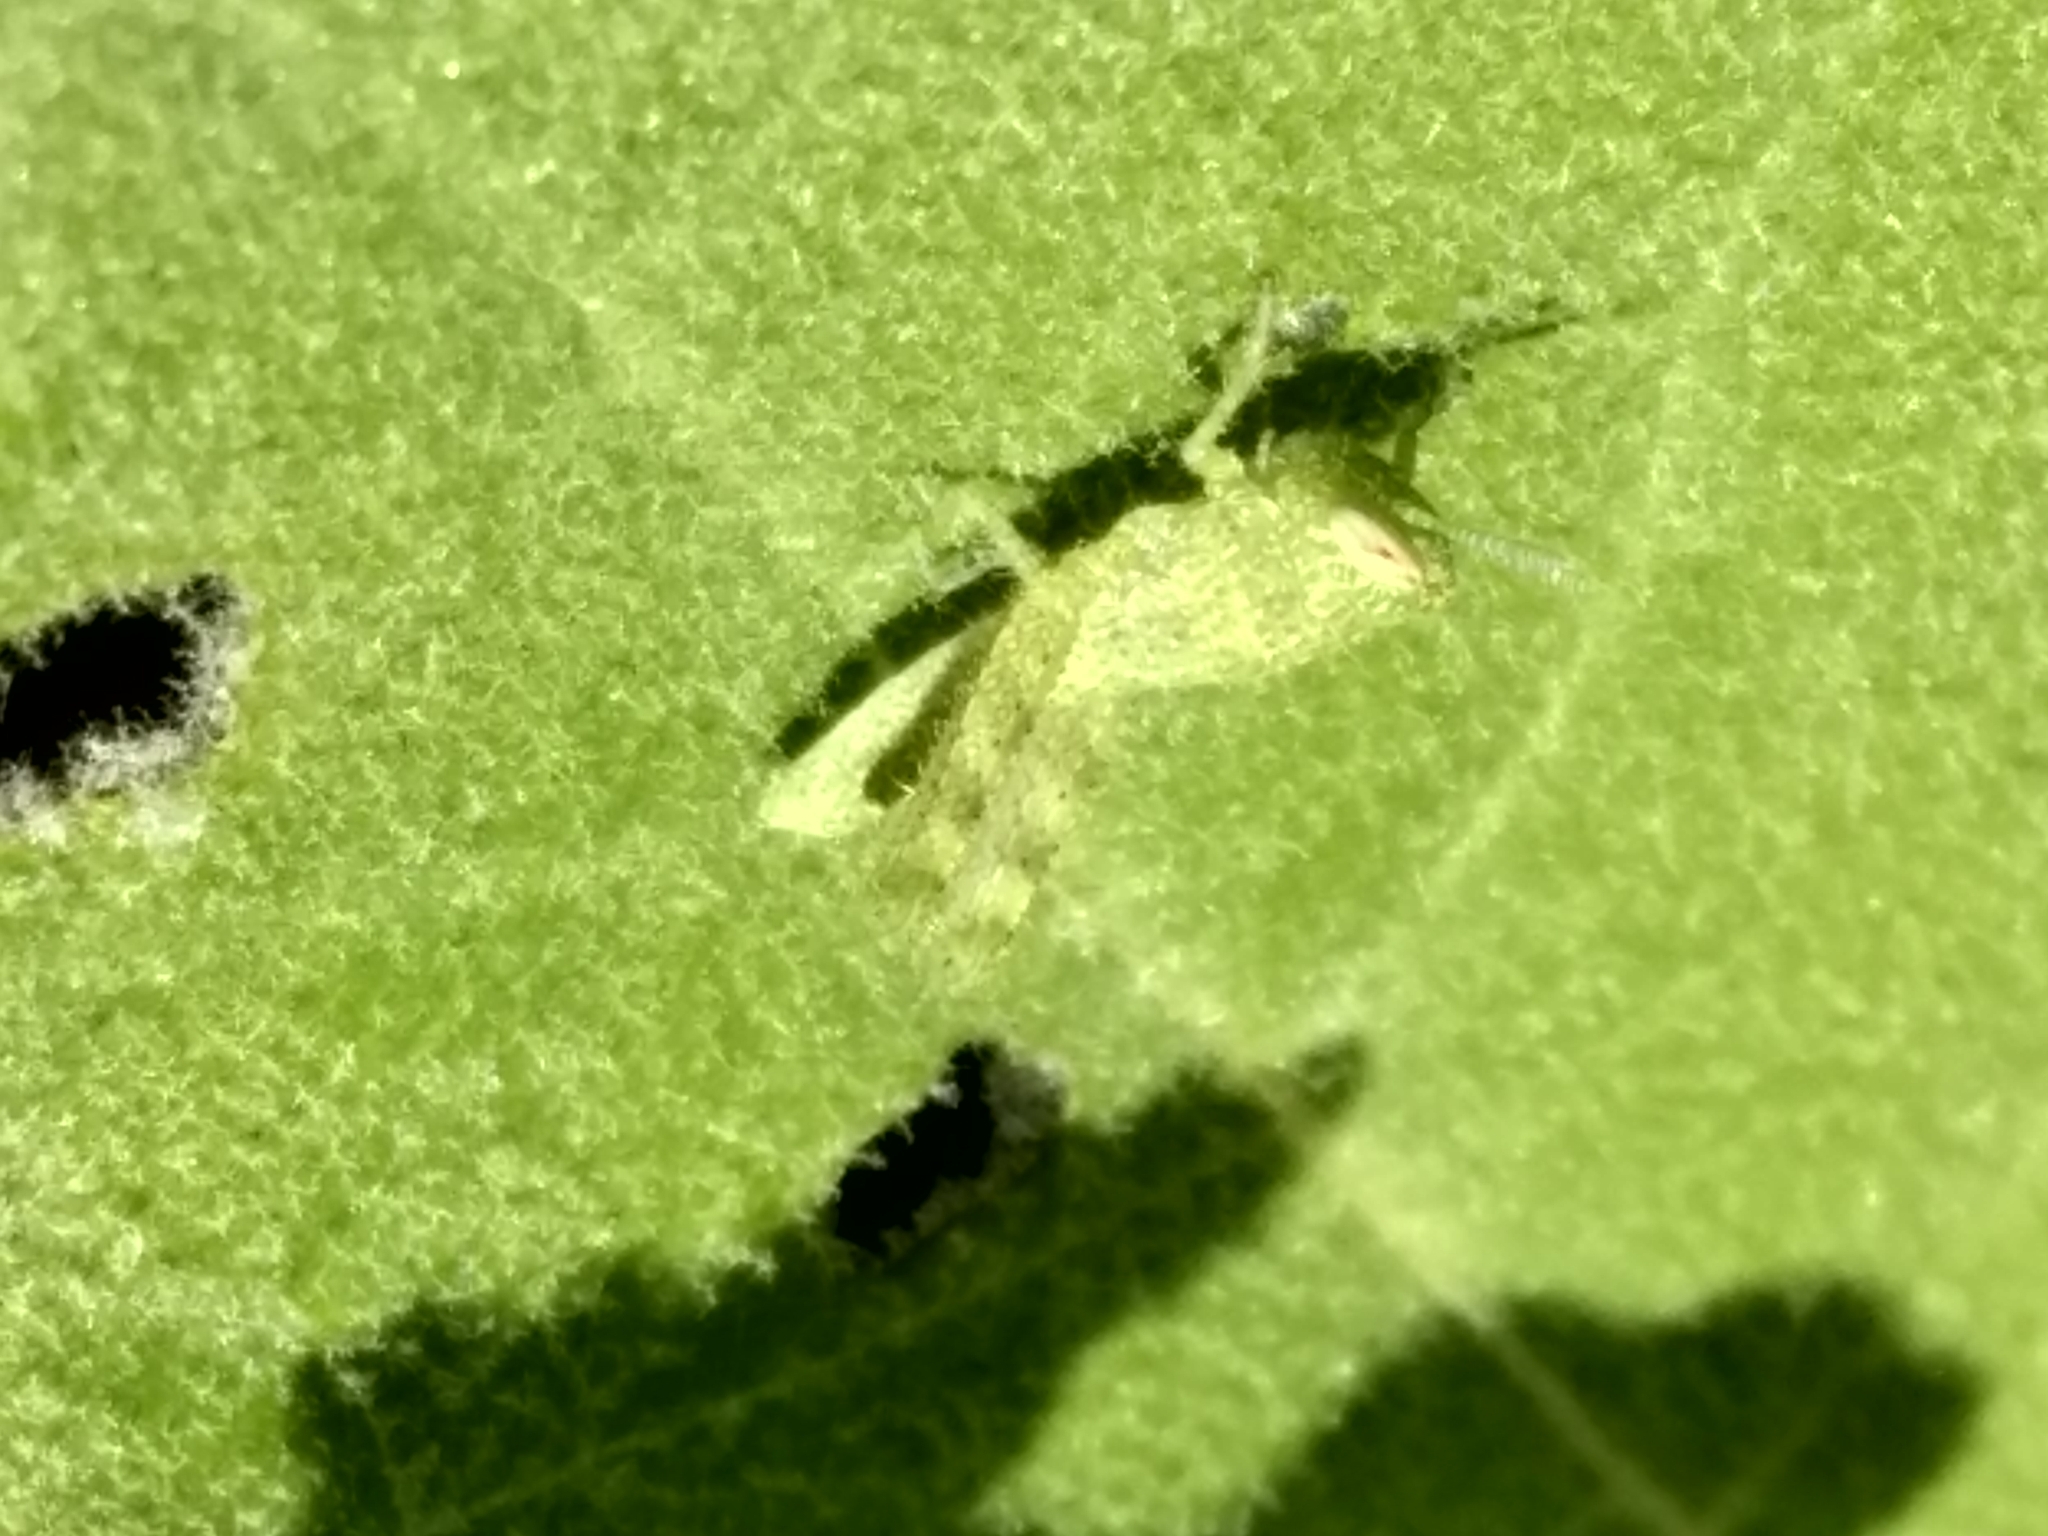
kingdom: Animalia
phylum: Arthropoda
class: Insecta
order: Orthoptera
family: Acrididae
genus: Schistocerca
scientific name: Schistocerca nitens
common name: Vagrant grasshopper
